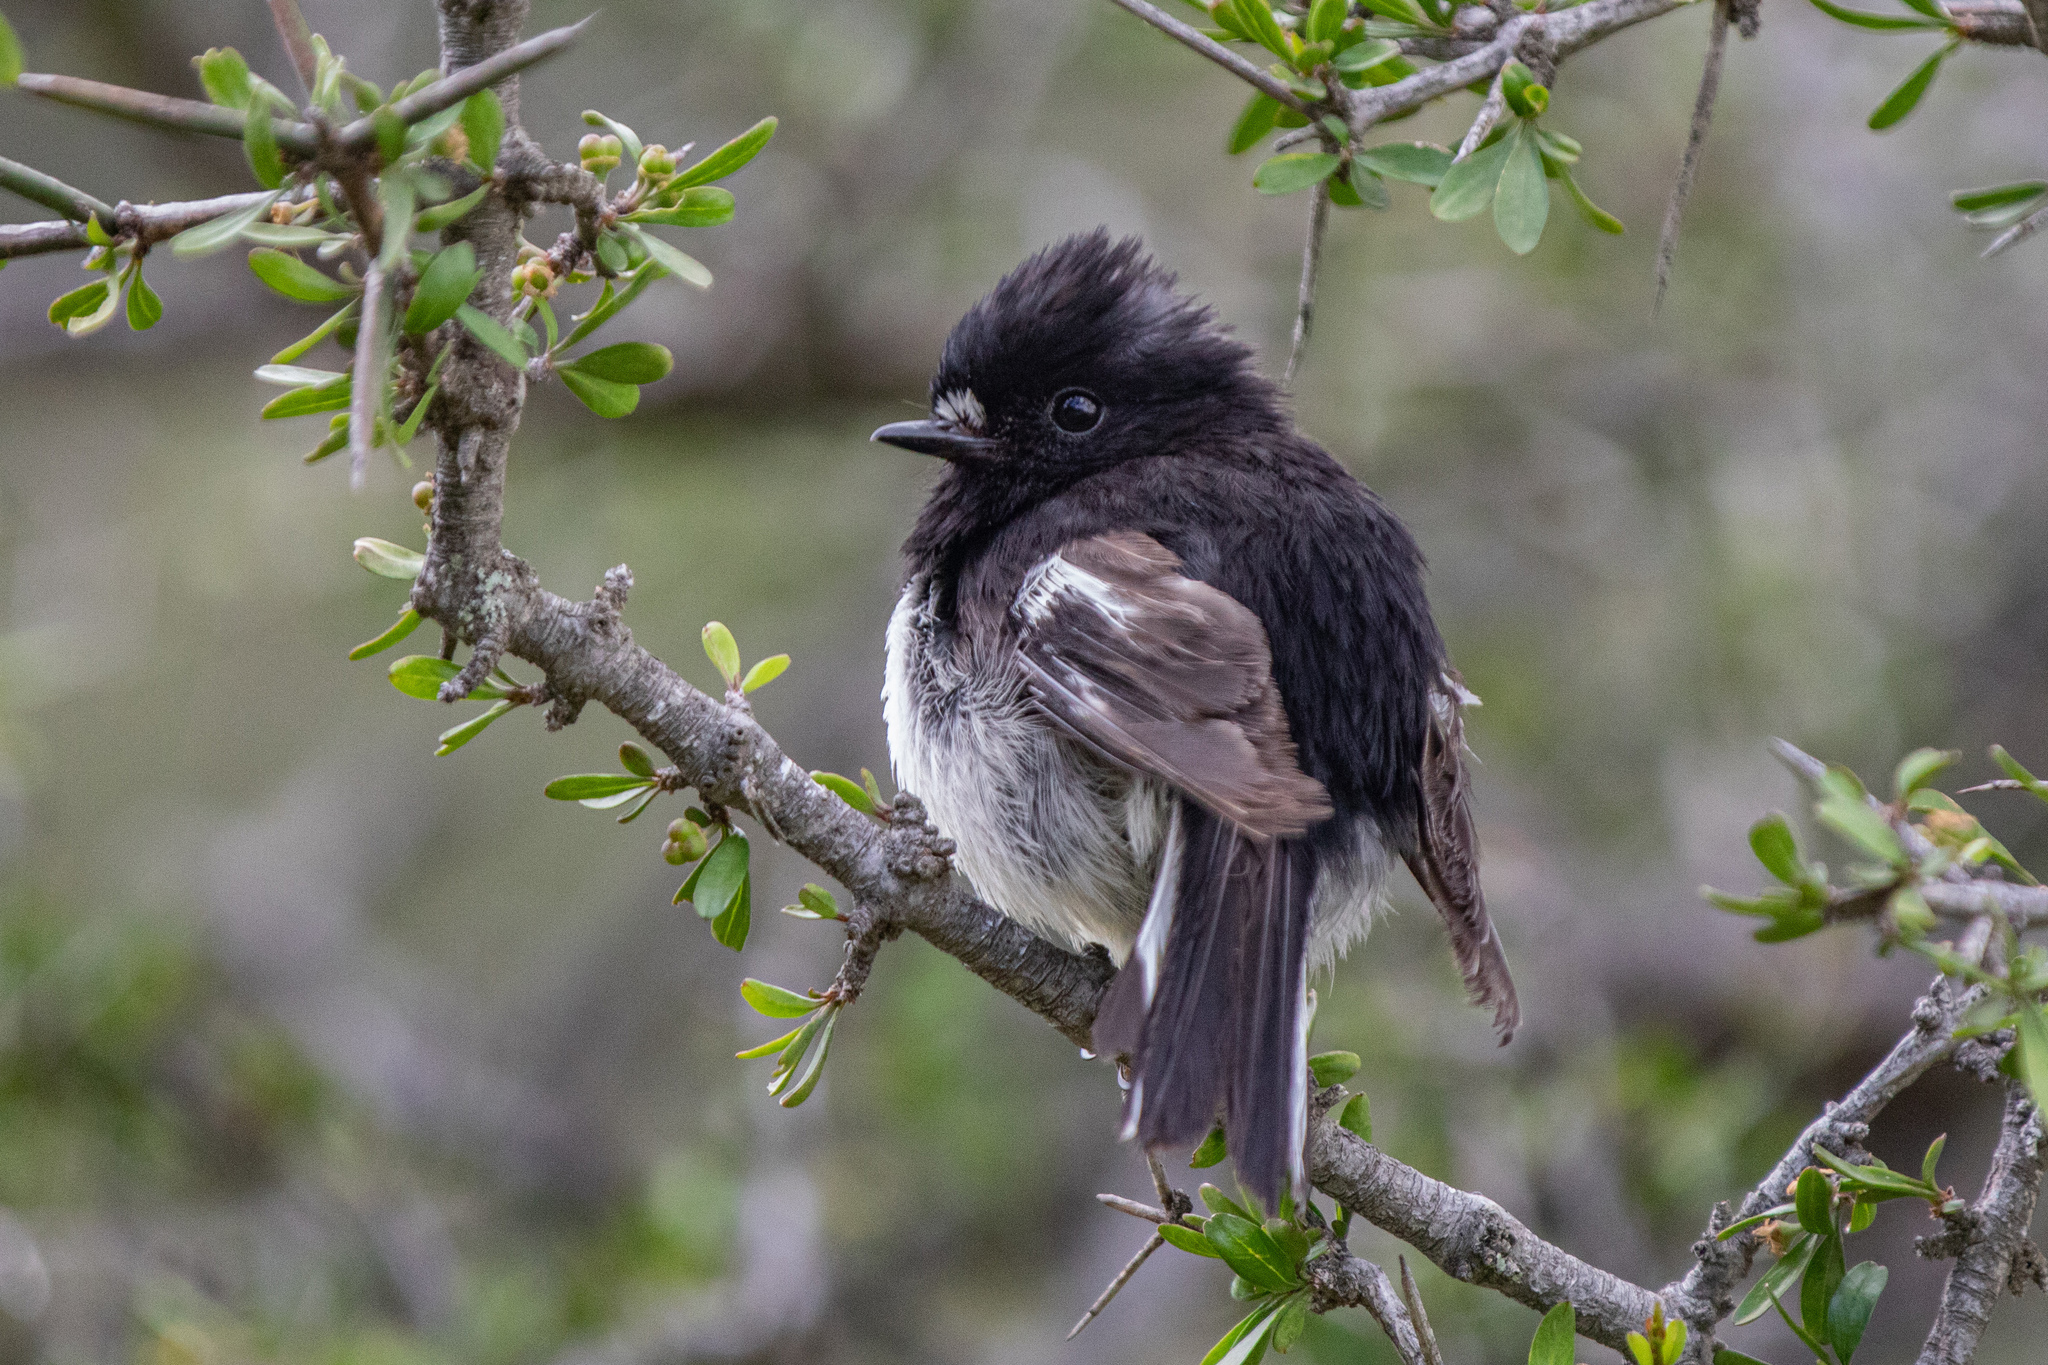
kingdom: Animalia
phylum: Chordata
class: Aves
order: Passeriformes
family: Petroicidae
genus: Petroica
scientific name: Petroica macrocephala
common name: Tomtit
